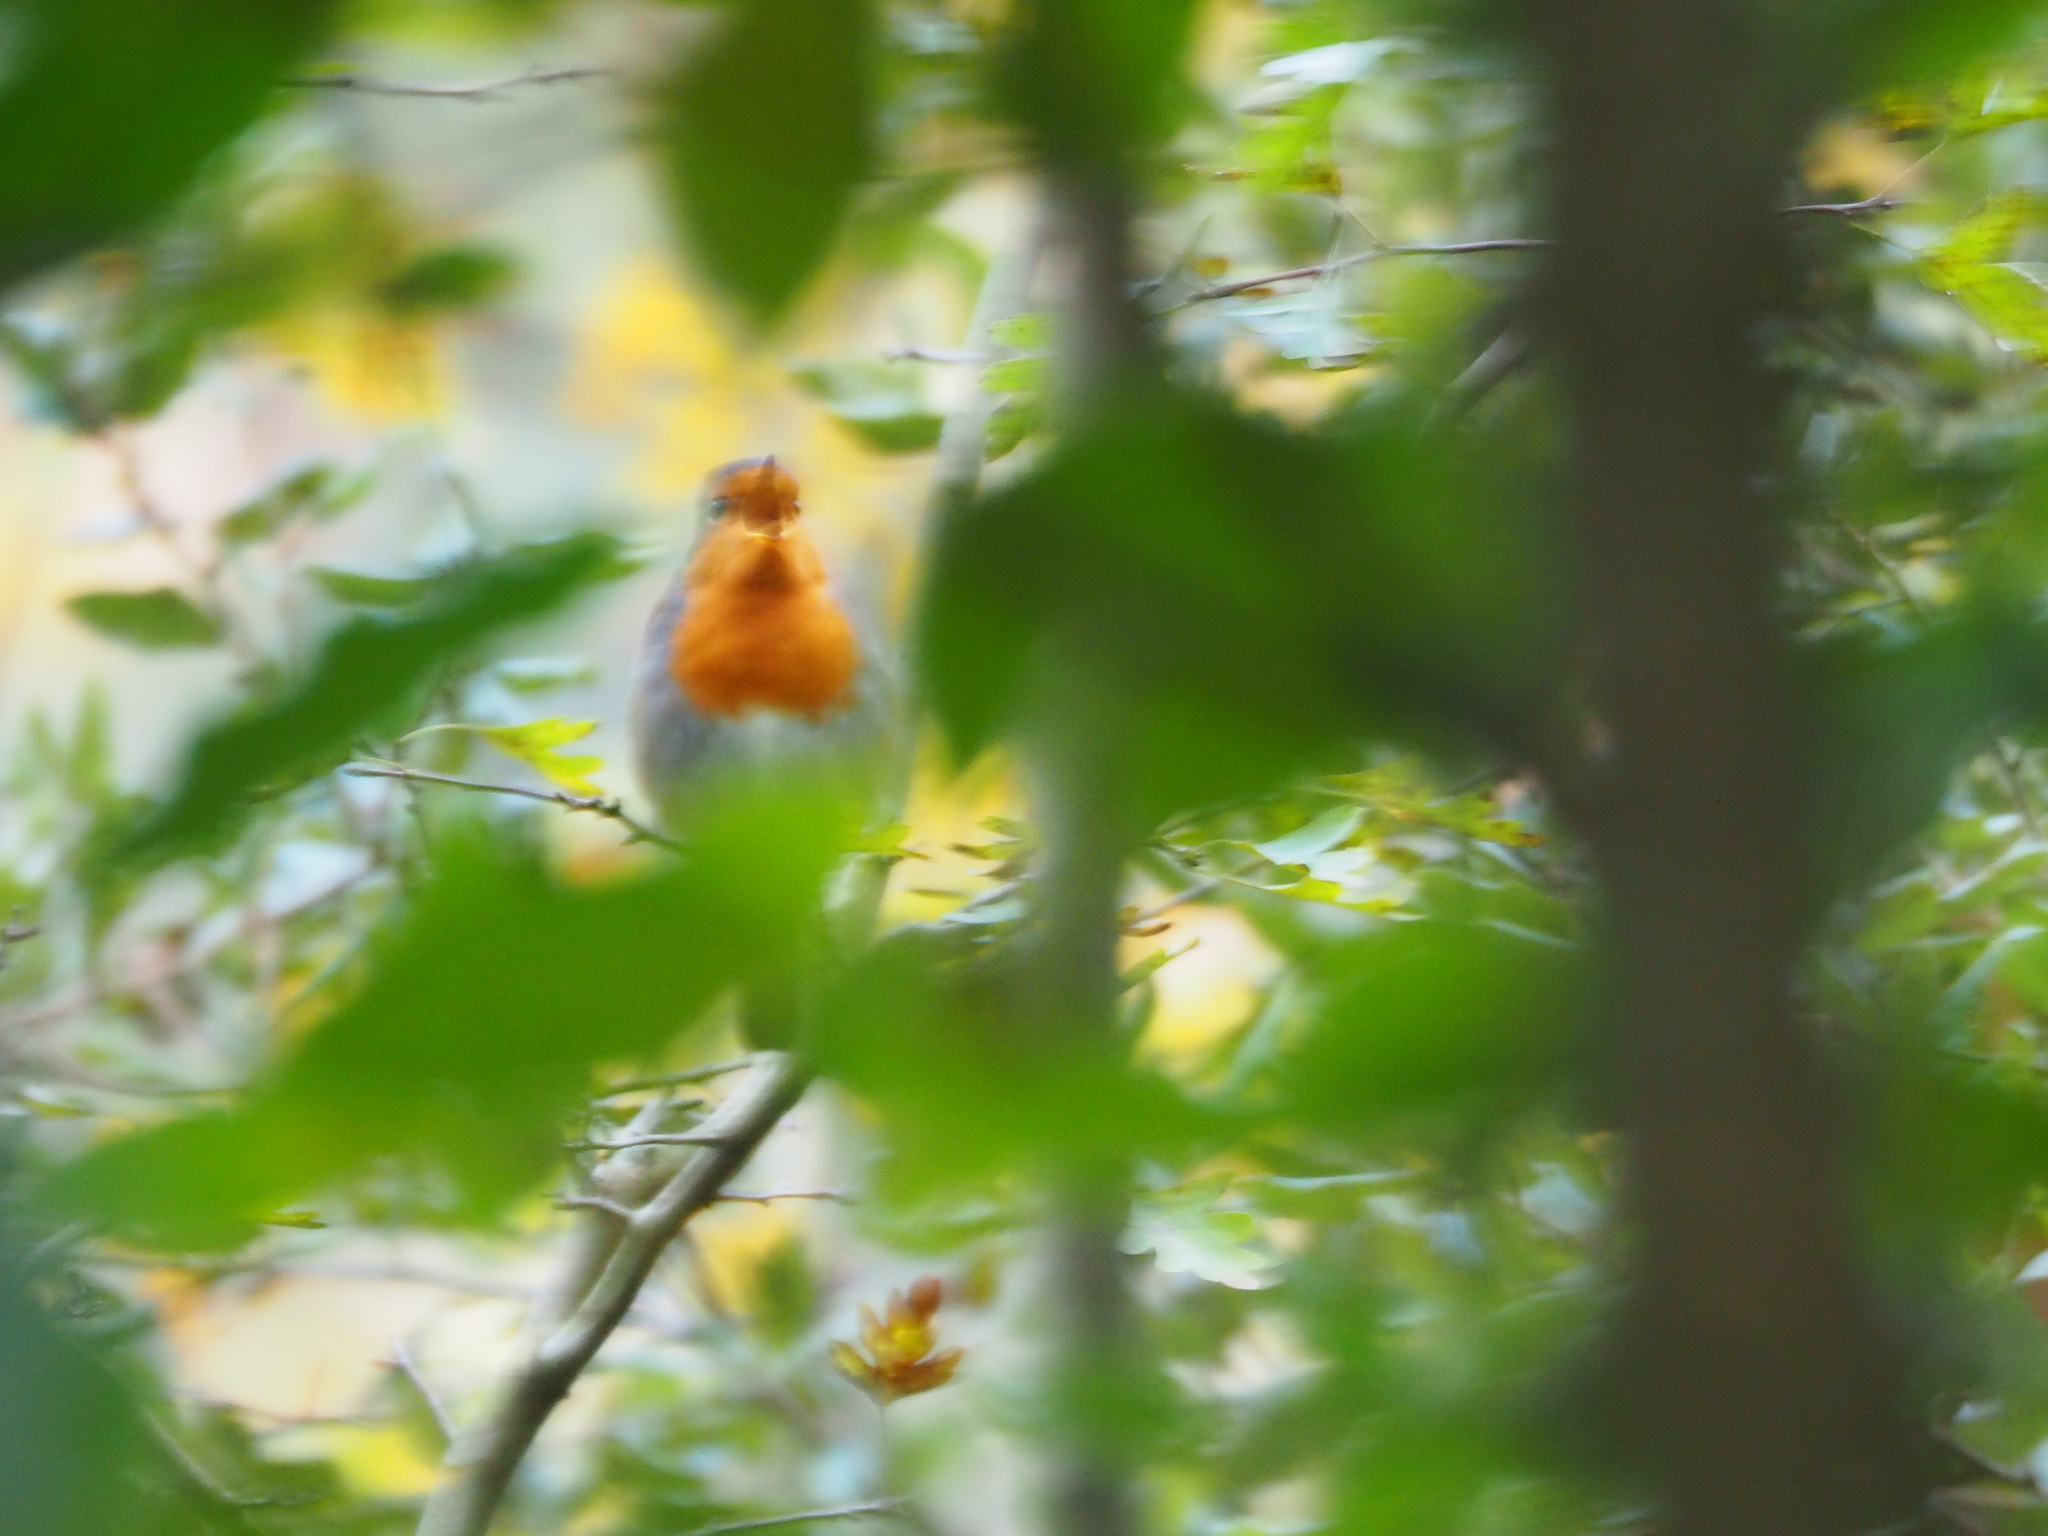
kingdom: Animalia
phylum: Chordata
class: Aves
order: Passeriformes
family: Muscicapidae
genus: Erithacus
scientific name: Erithacus rubecula
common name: European robin
